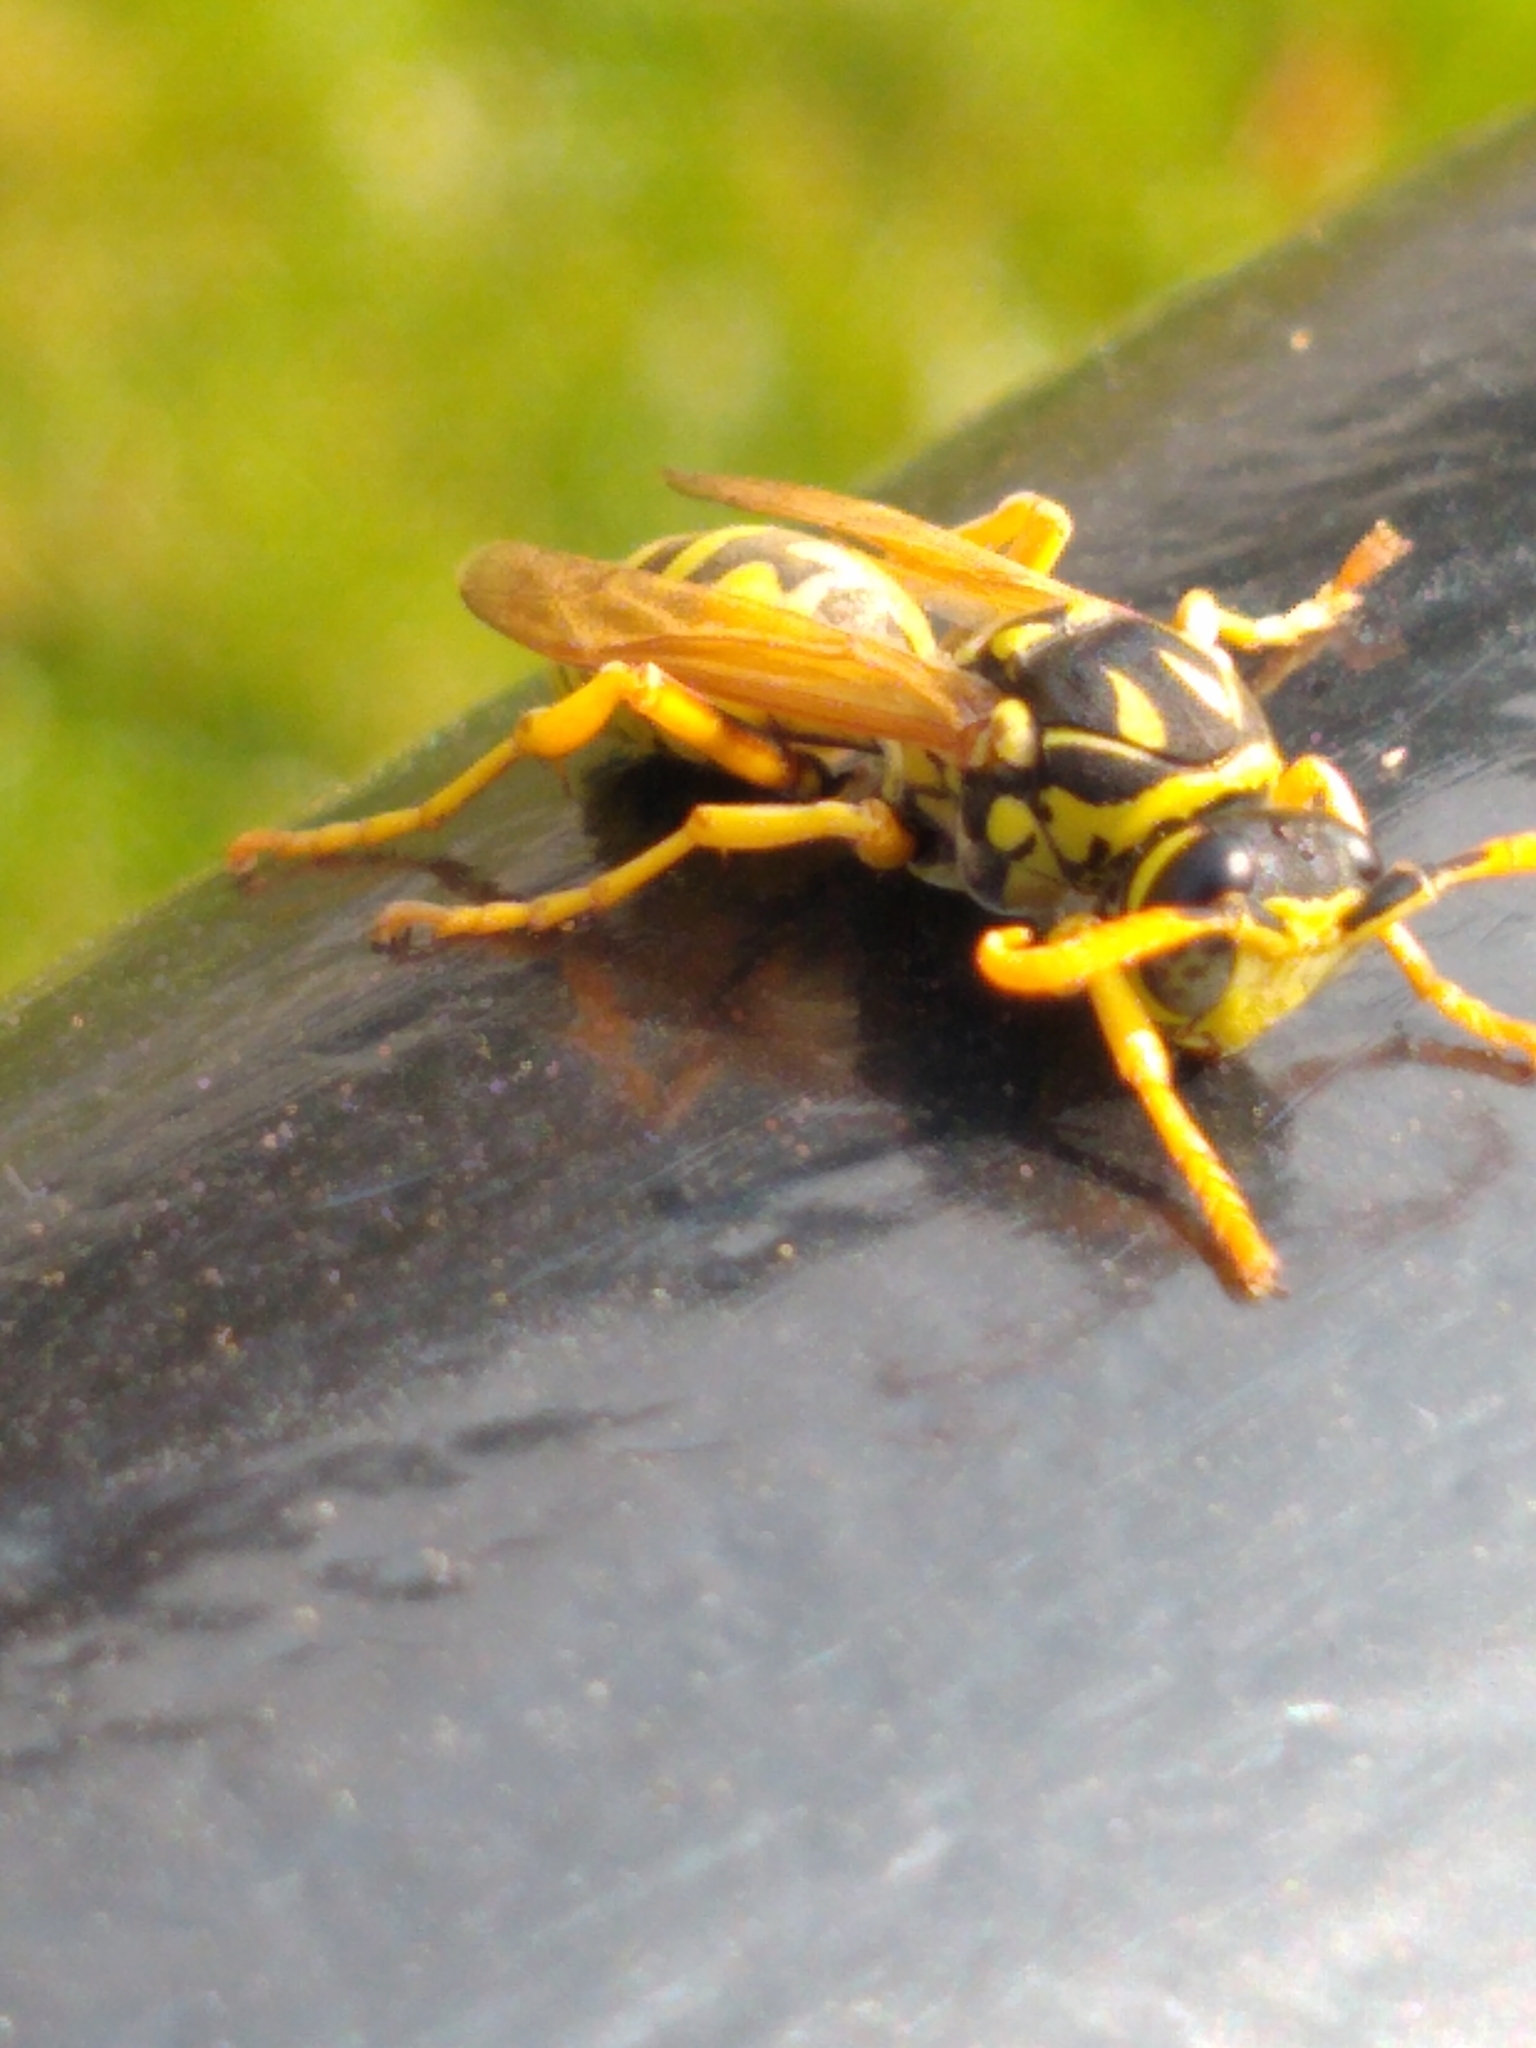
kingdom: Animalia
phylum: Arthropoda
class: Insecta
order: Hymenoptera
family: Eumenidae
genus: Polistes
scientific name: Polistes dominula
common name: Paper wasp
